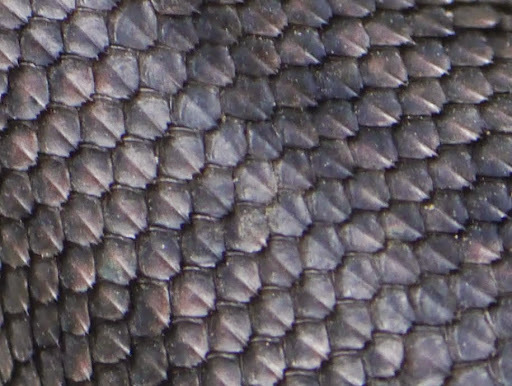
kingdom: Animalia
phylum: Chordata
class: Squamata
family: Phrynosomatidae
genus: Sceloporus
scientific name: Sceloporus jarrovii
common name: Yarrow's spiny lizard
